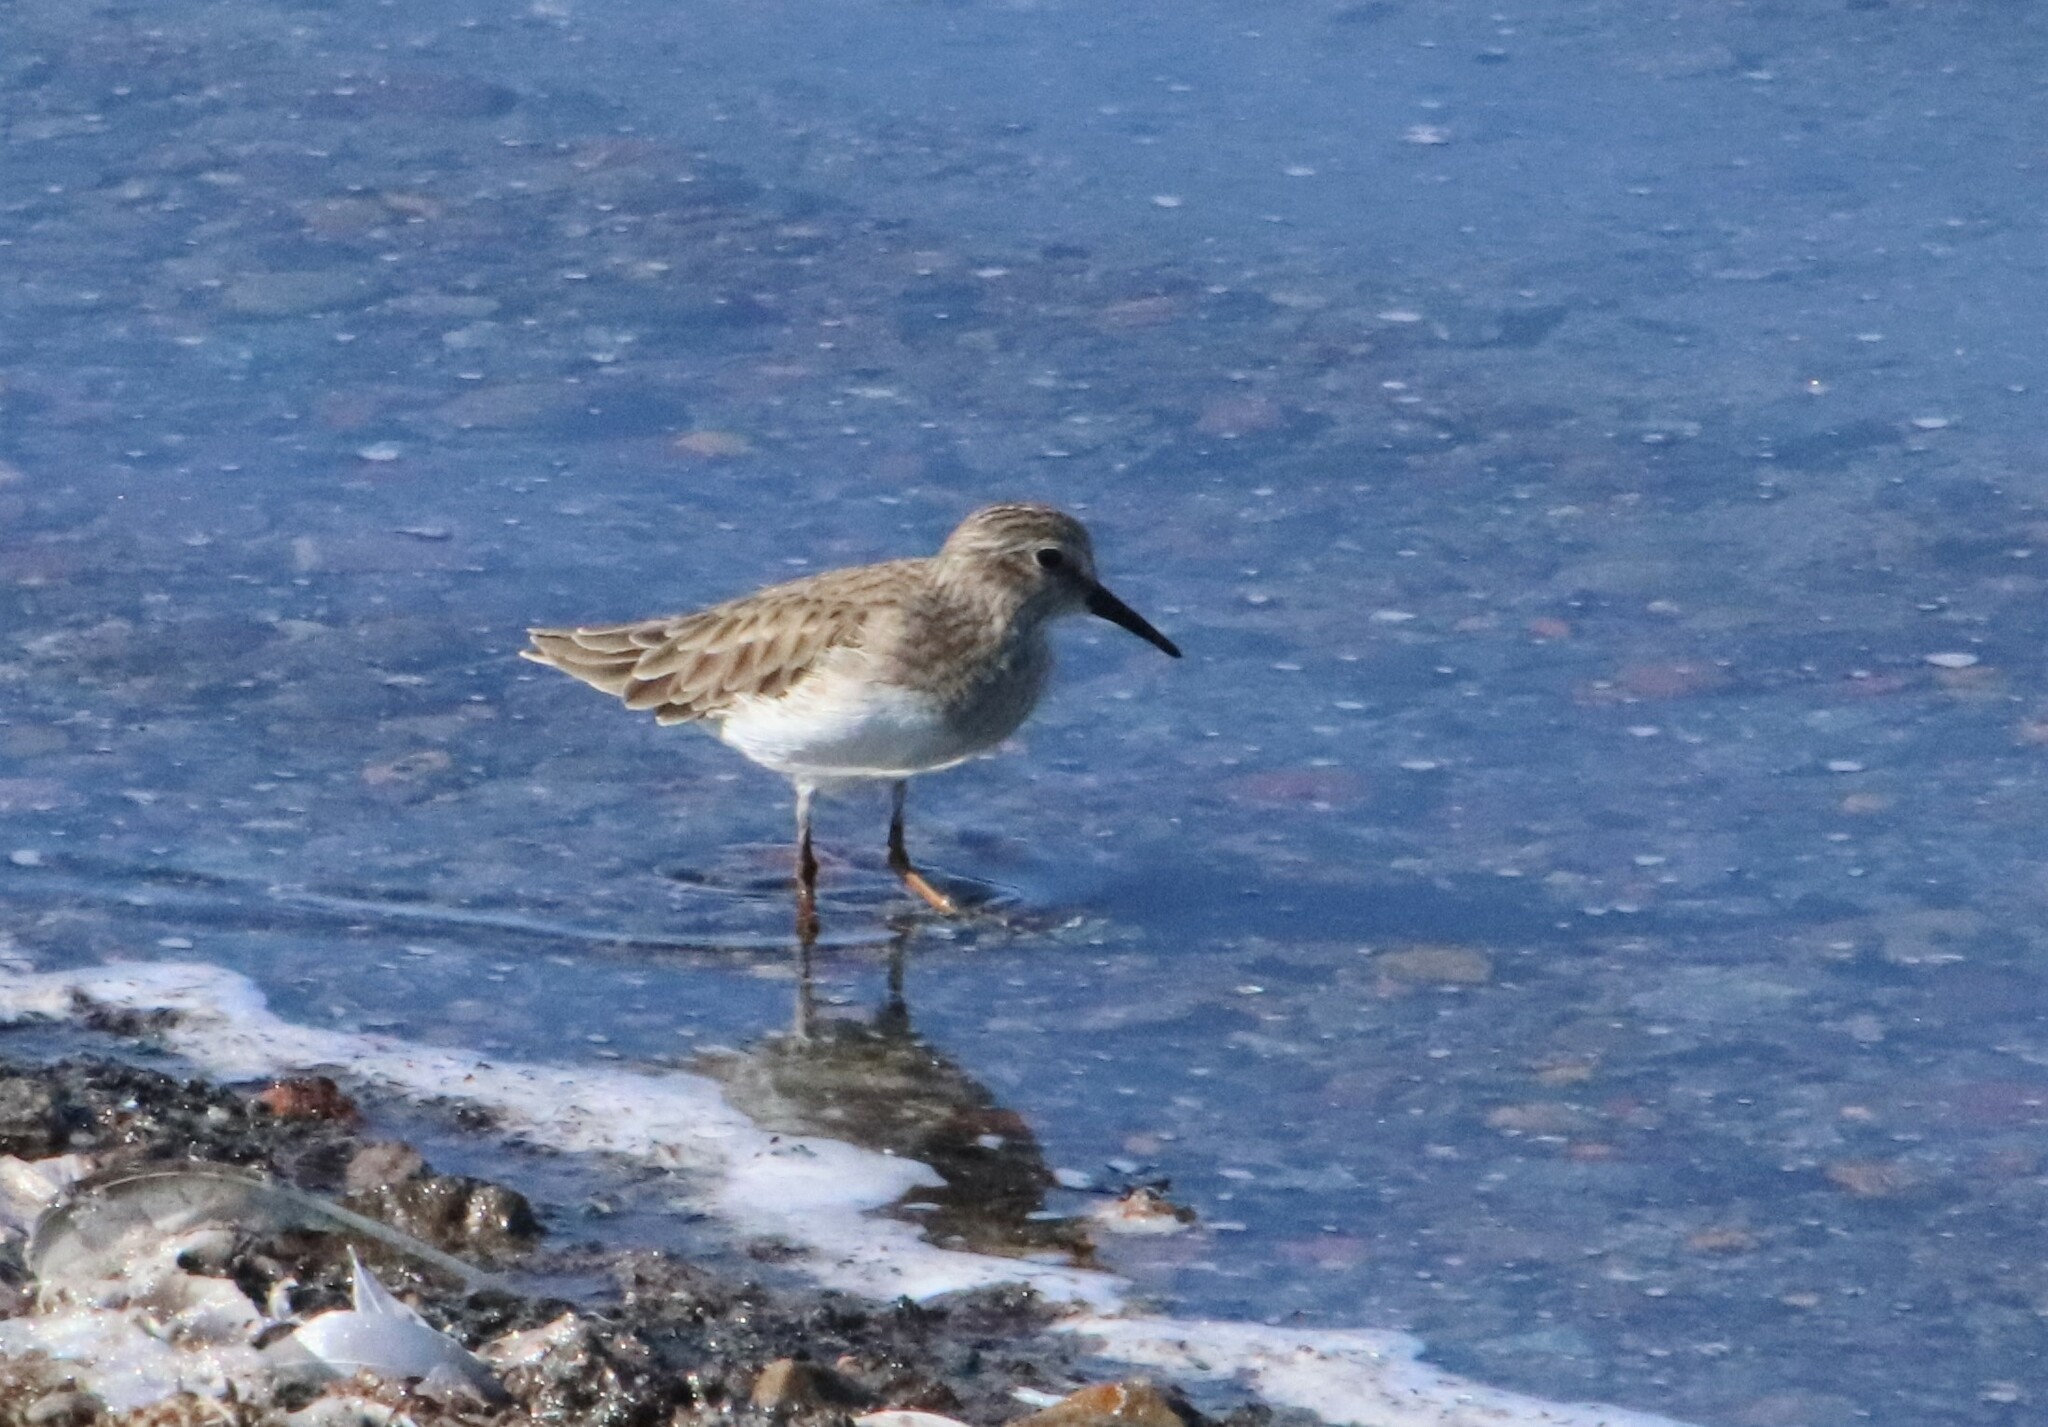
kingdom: Animalia
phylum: Chordata
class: Aves
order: Charadriiformes
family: Scolopacidae
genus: Calidris
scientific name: Calidris minutilla
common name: Least sandpiper
